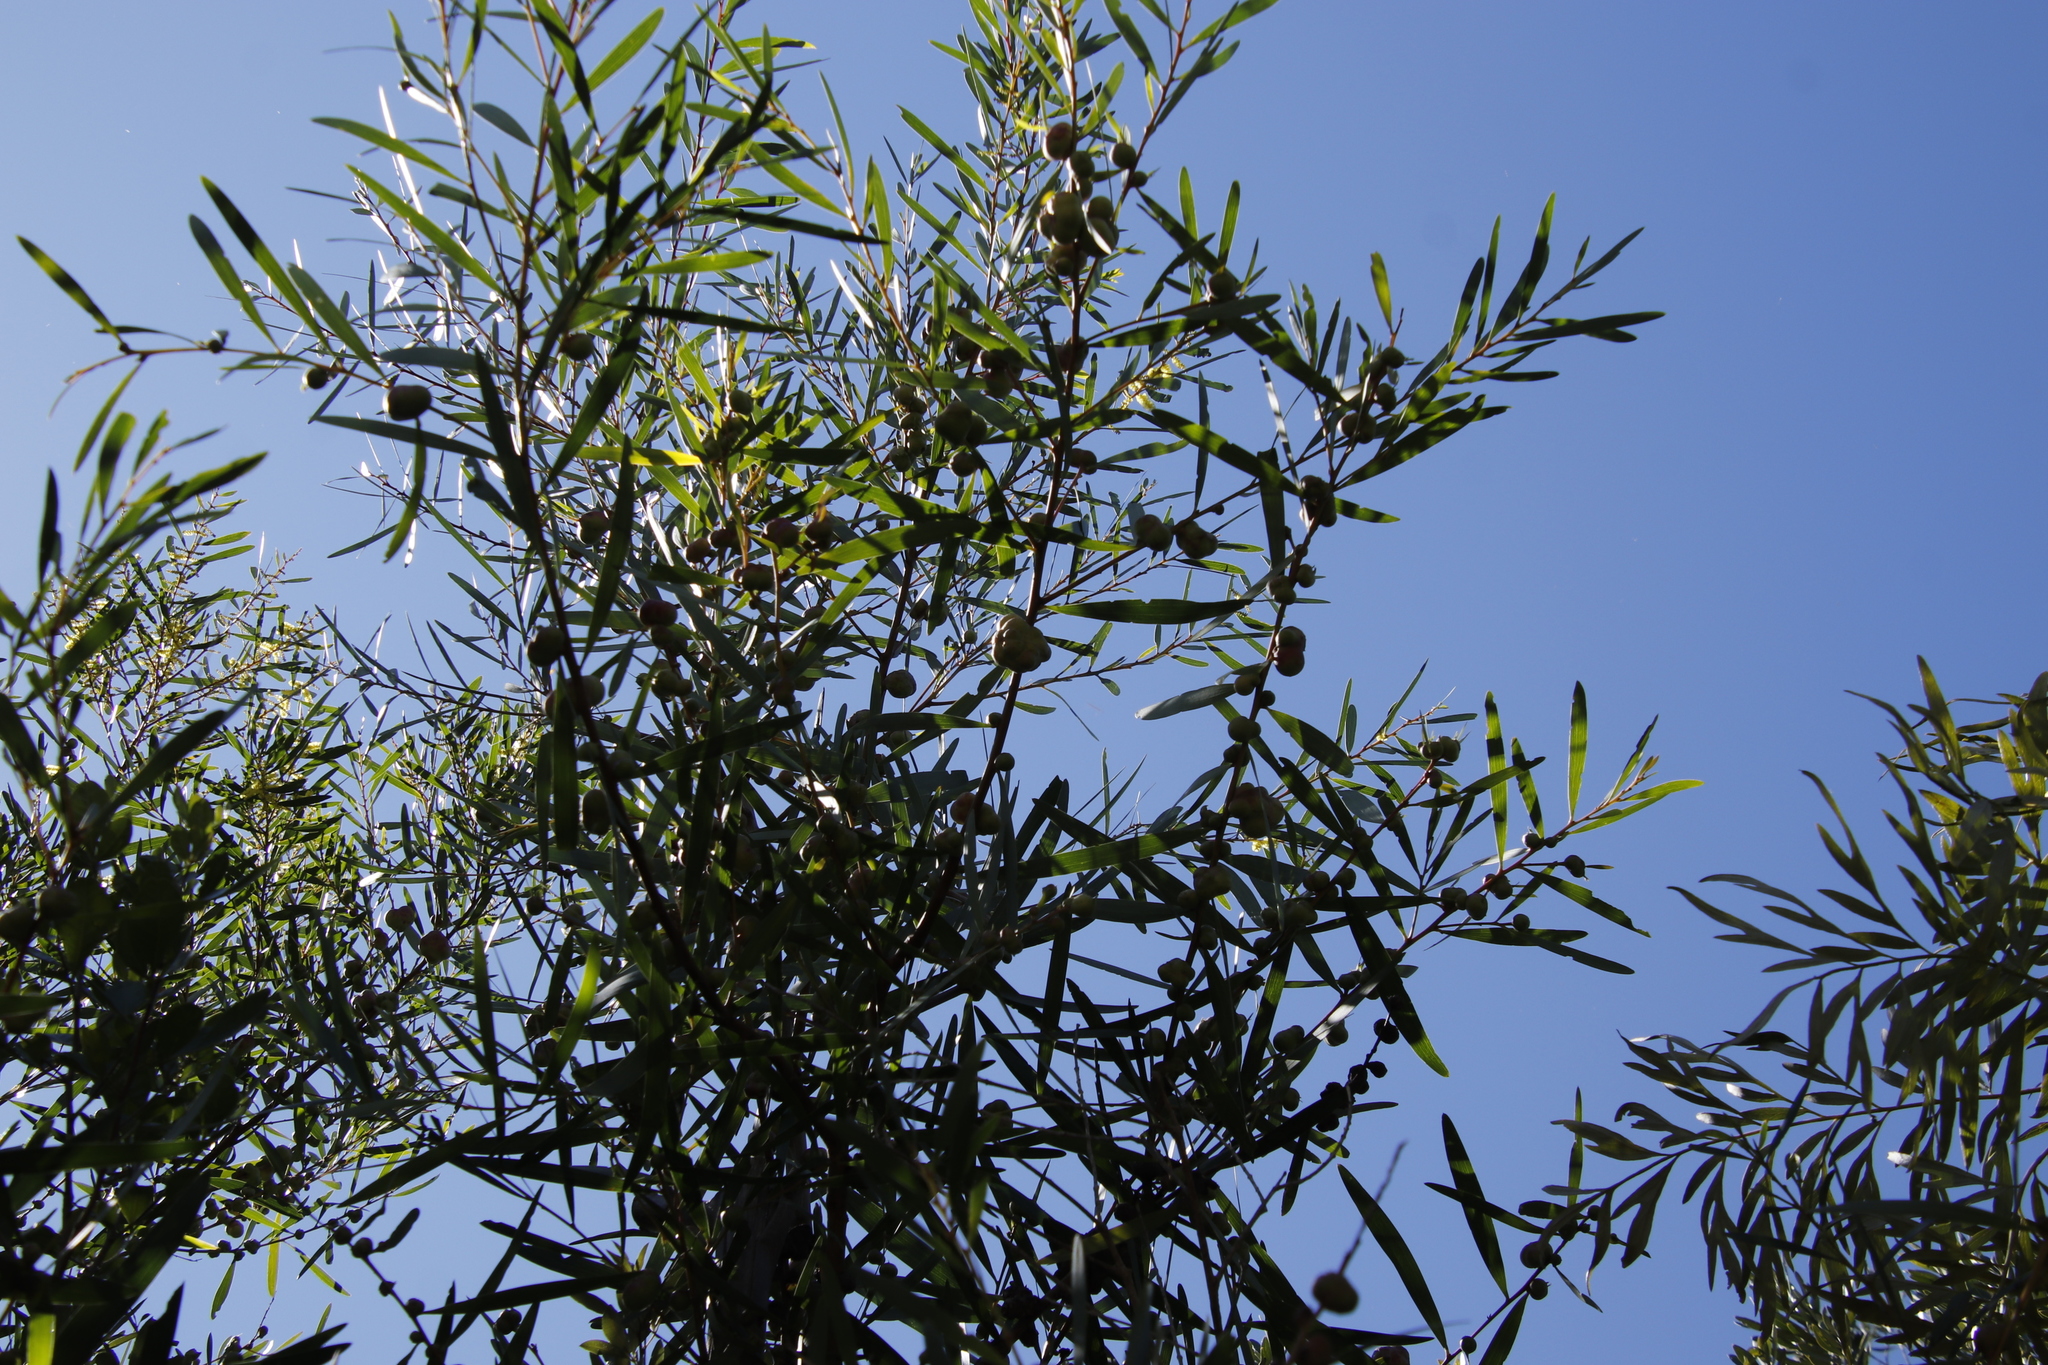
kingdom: Plantae
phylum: Tracheophyta
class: Magnoliopsida
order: Fabales
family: Fabaceae
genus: Acacia
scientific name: Acacia longifolia
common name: Sydney golden wattle
